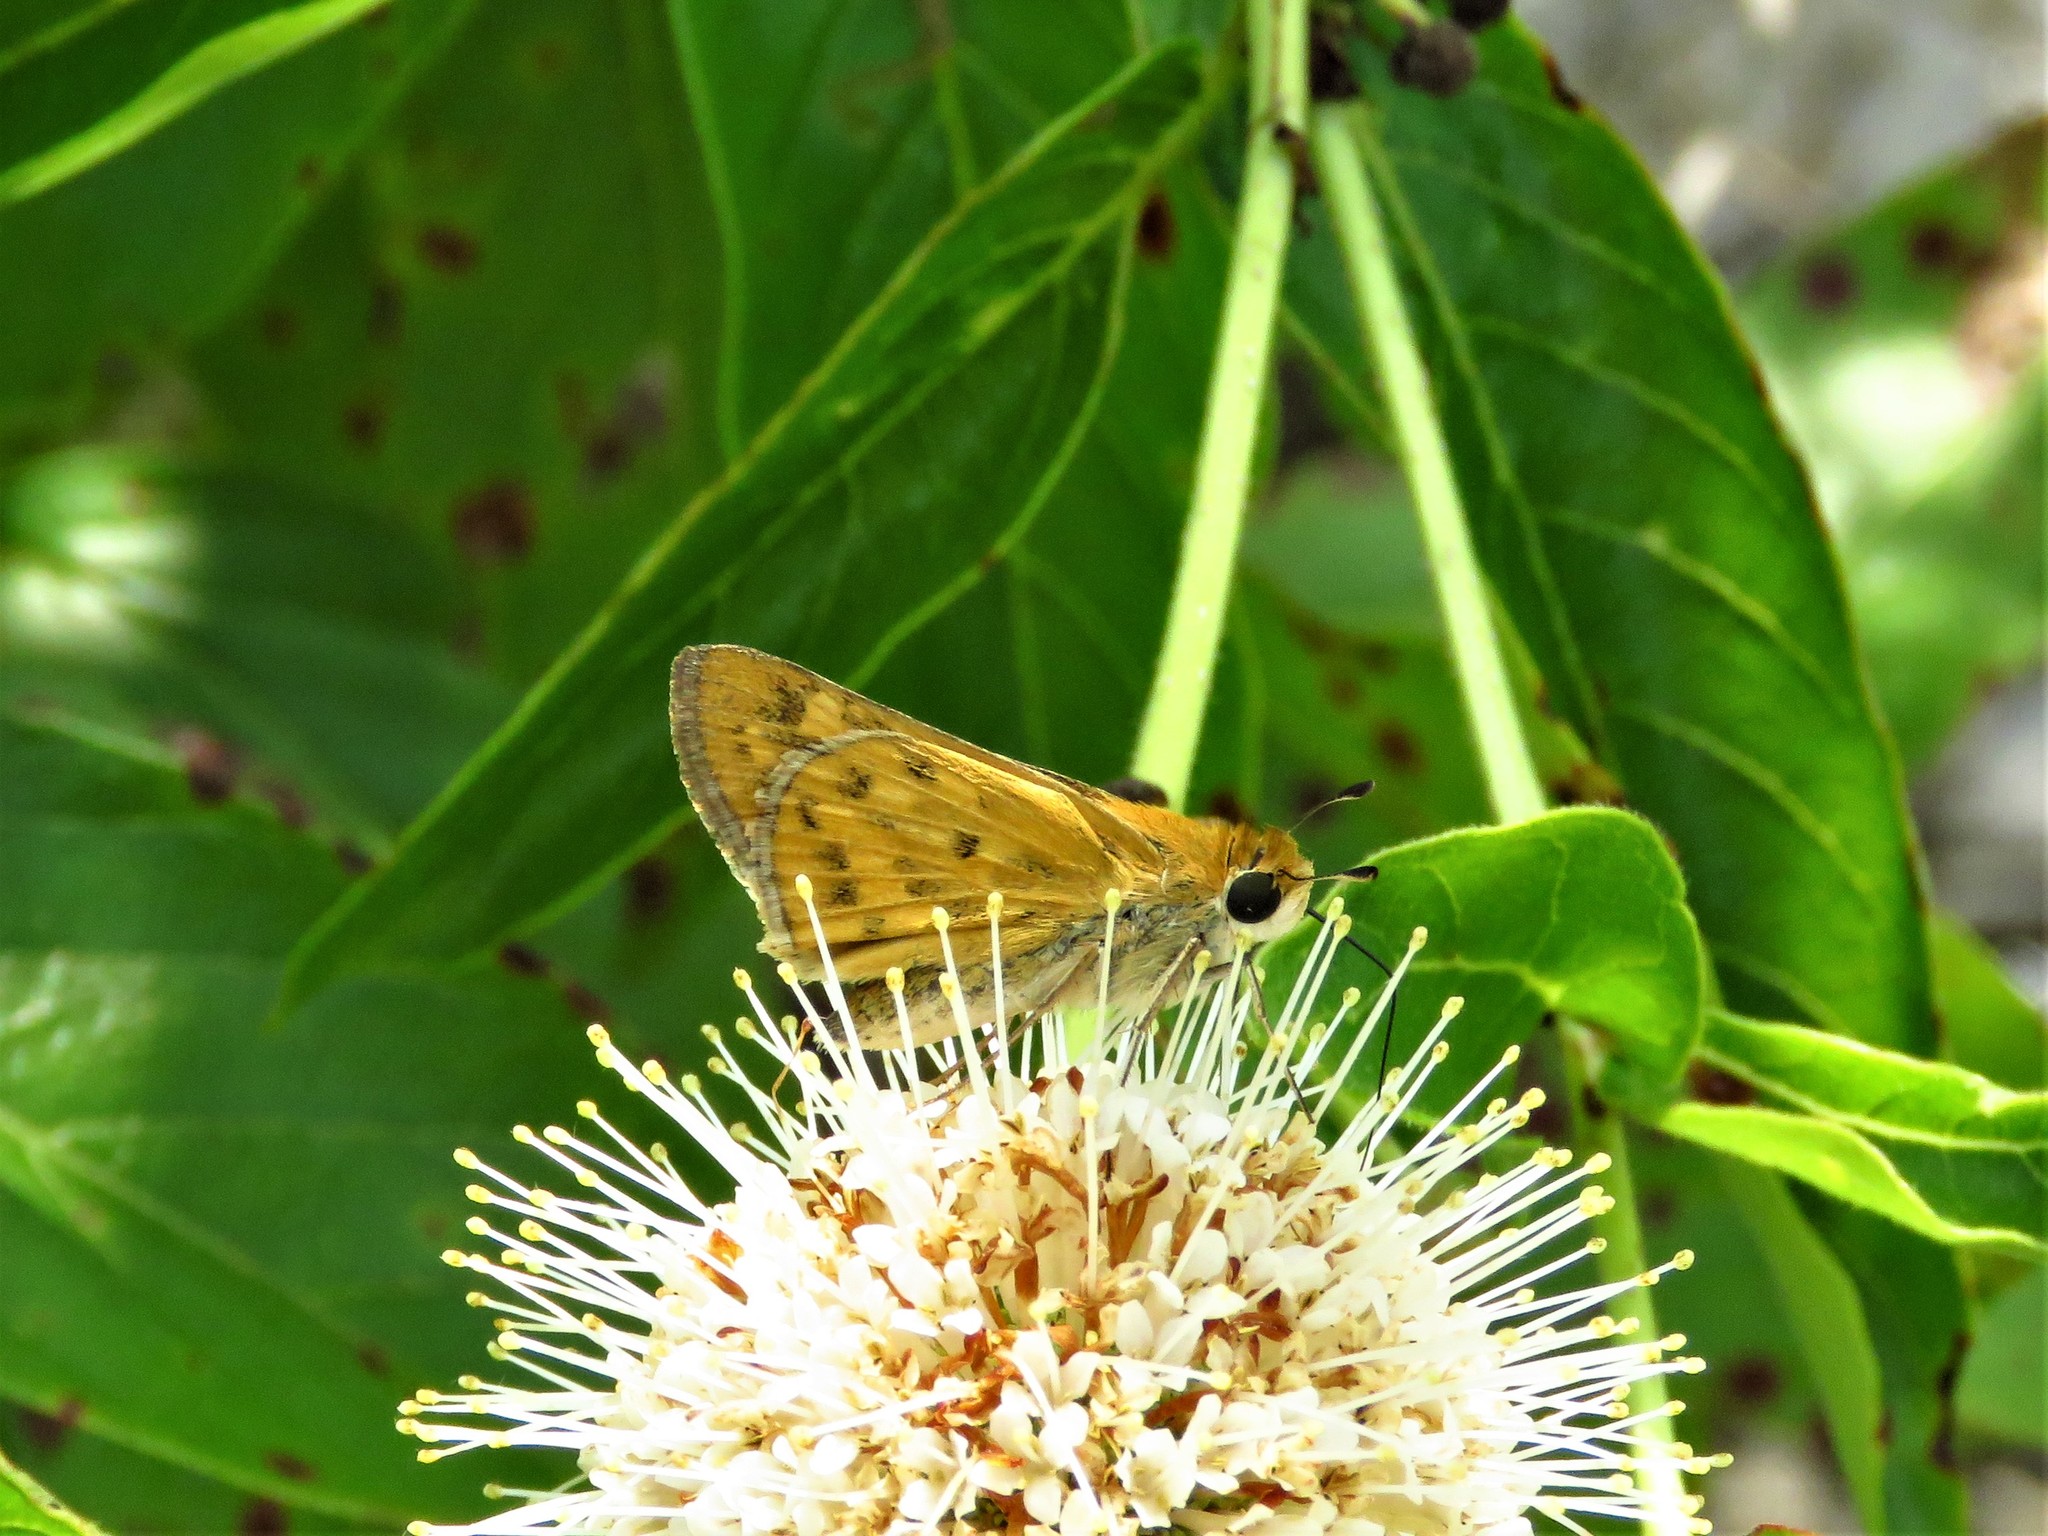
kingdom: Animalia
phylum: Arthropoda
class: Insecta
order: Lepidoptera
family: Hesperiidae
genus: Hylephila
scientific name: Hylephila phyleus
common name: Fiery skipper
